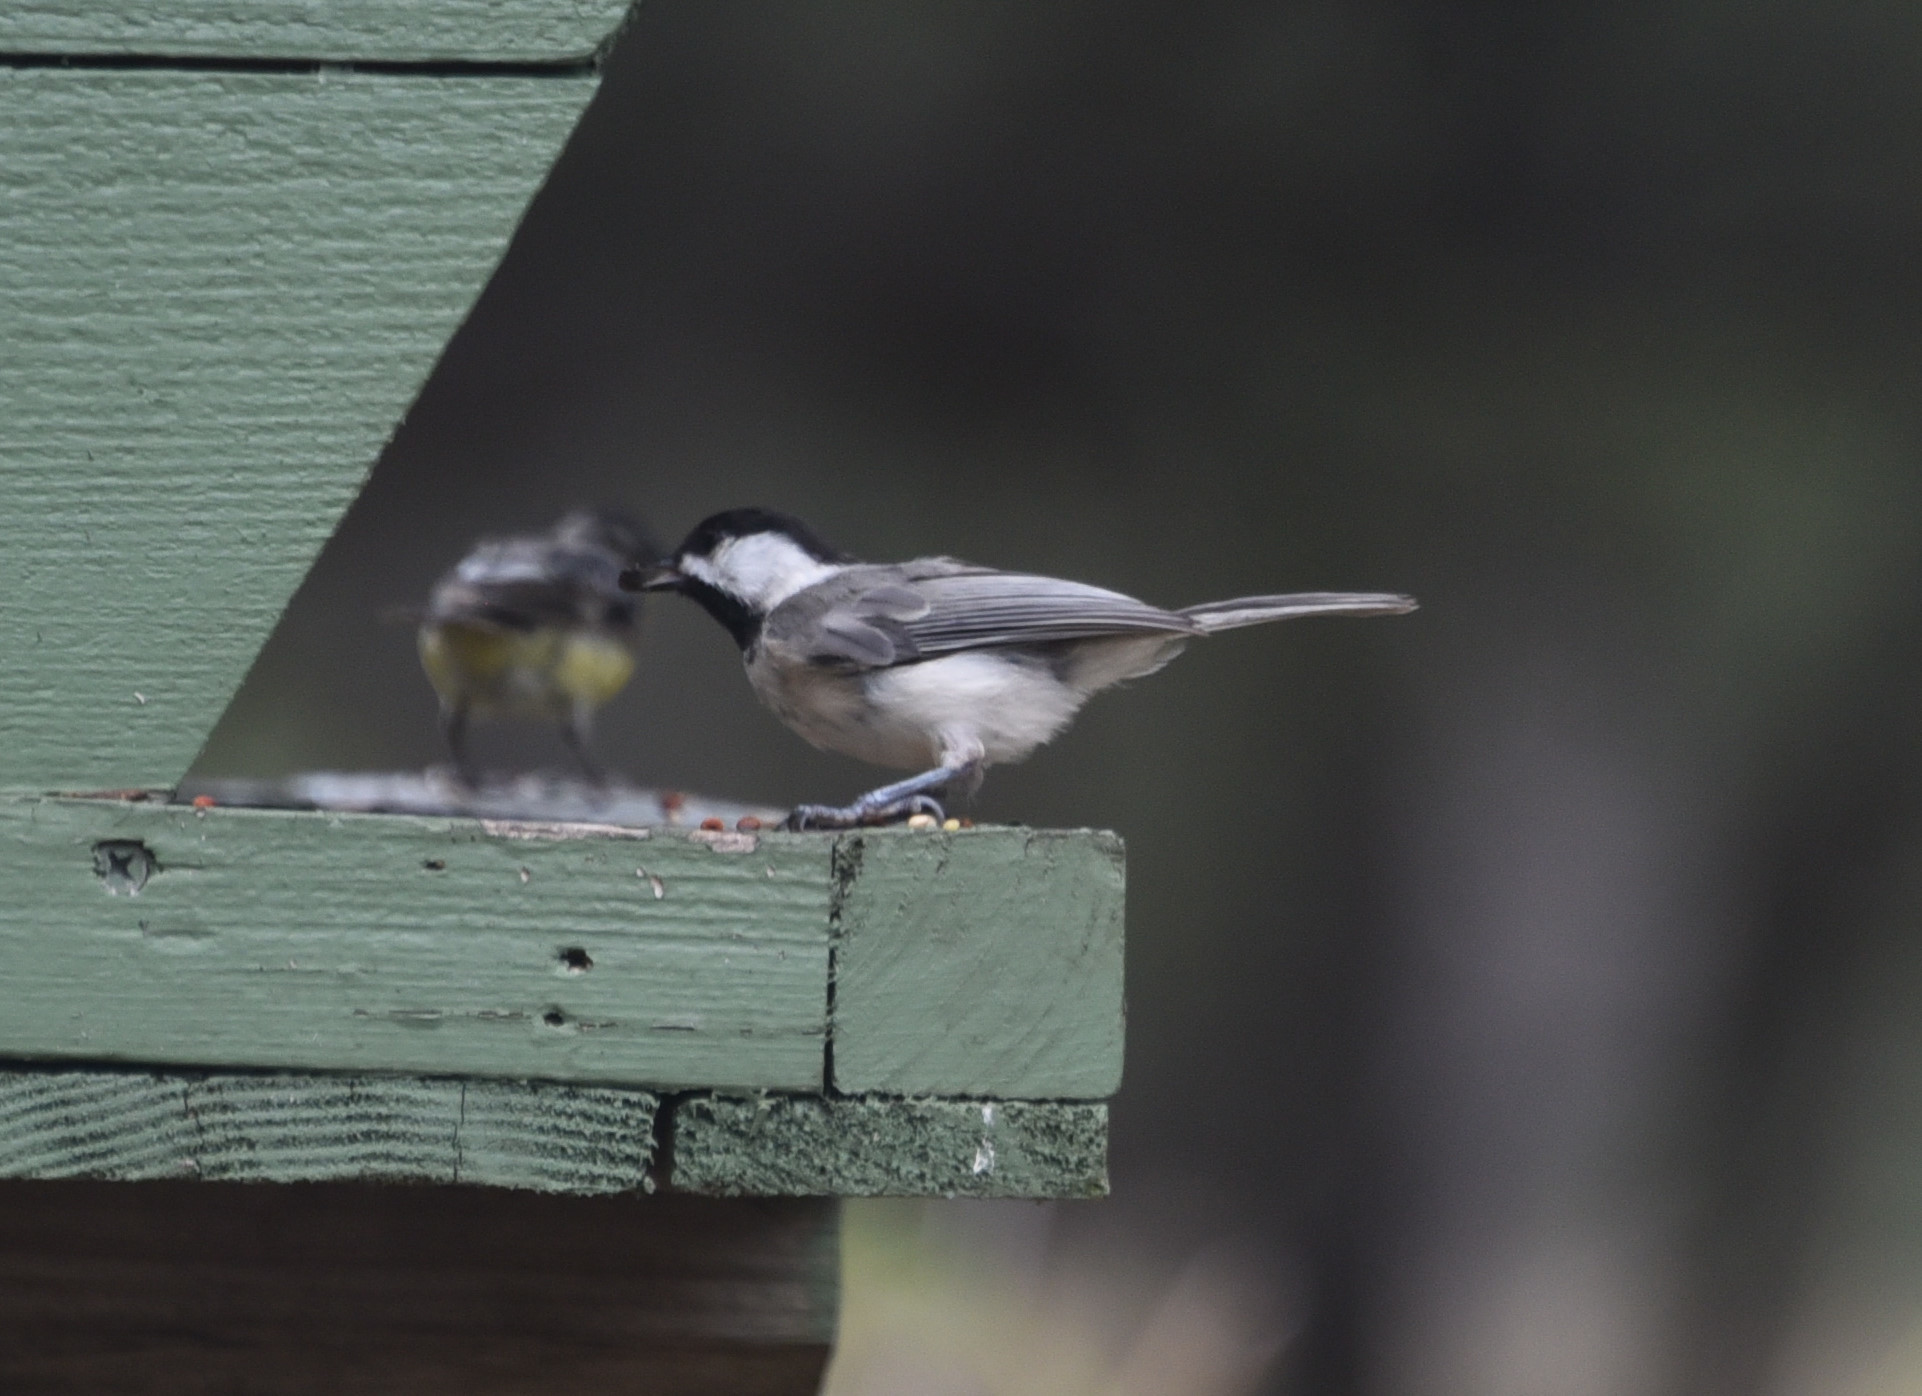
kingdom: Animalia
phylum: Chordata
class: Aves
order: Passeriformes
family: Paridae
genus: Poecile
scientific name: Poecile carolinensis
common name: Carolina chickadee
